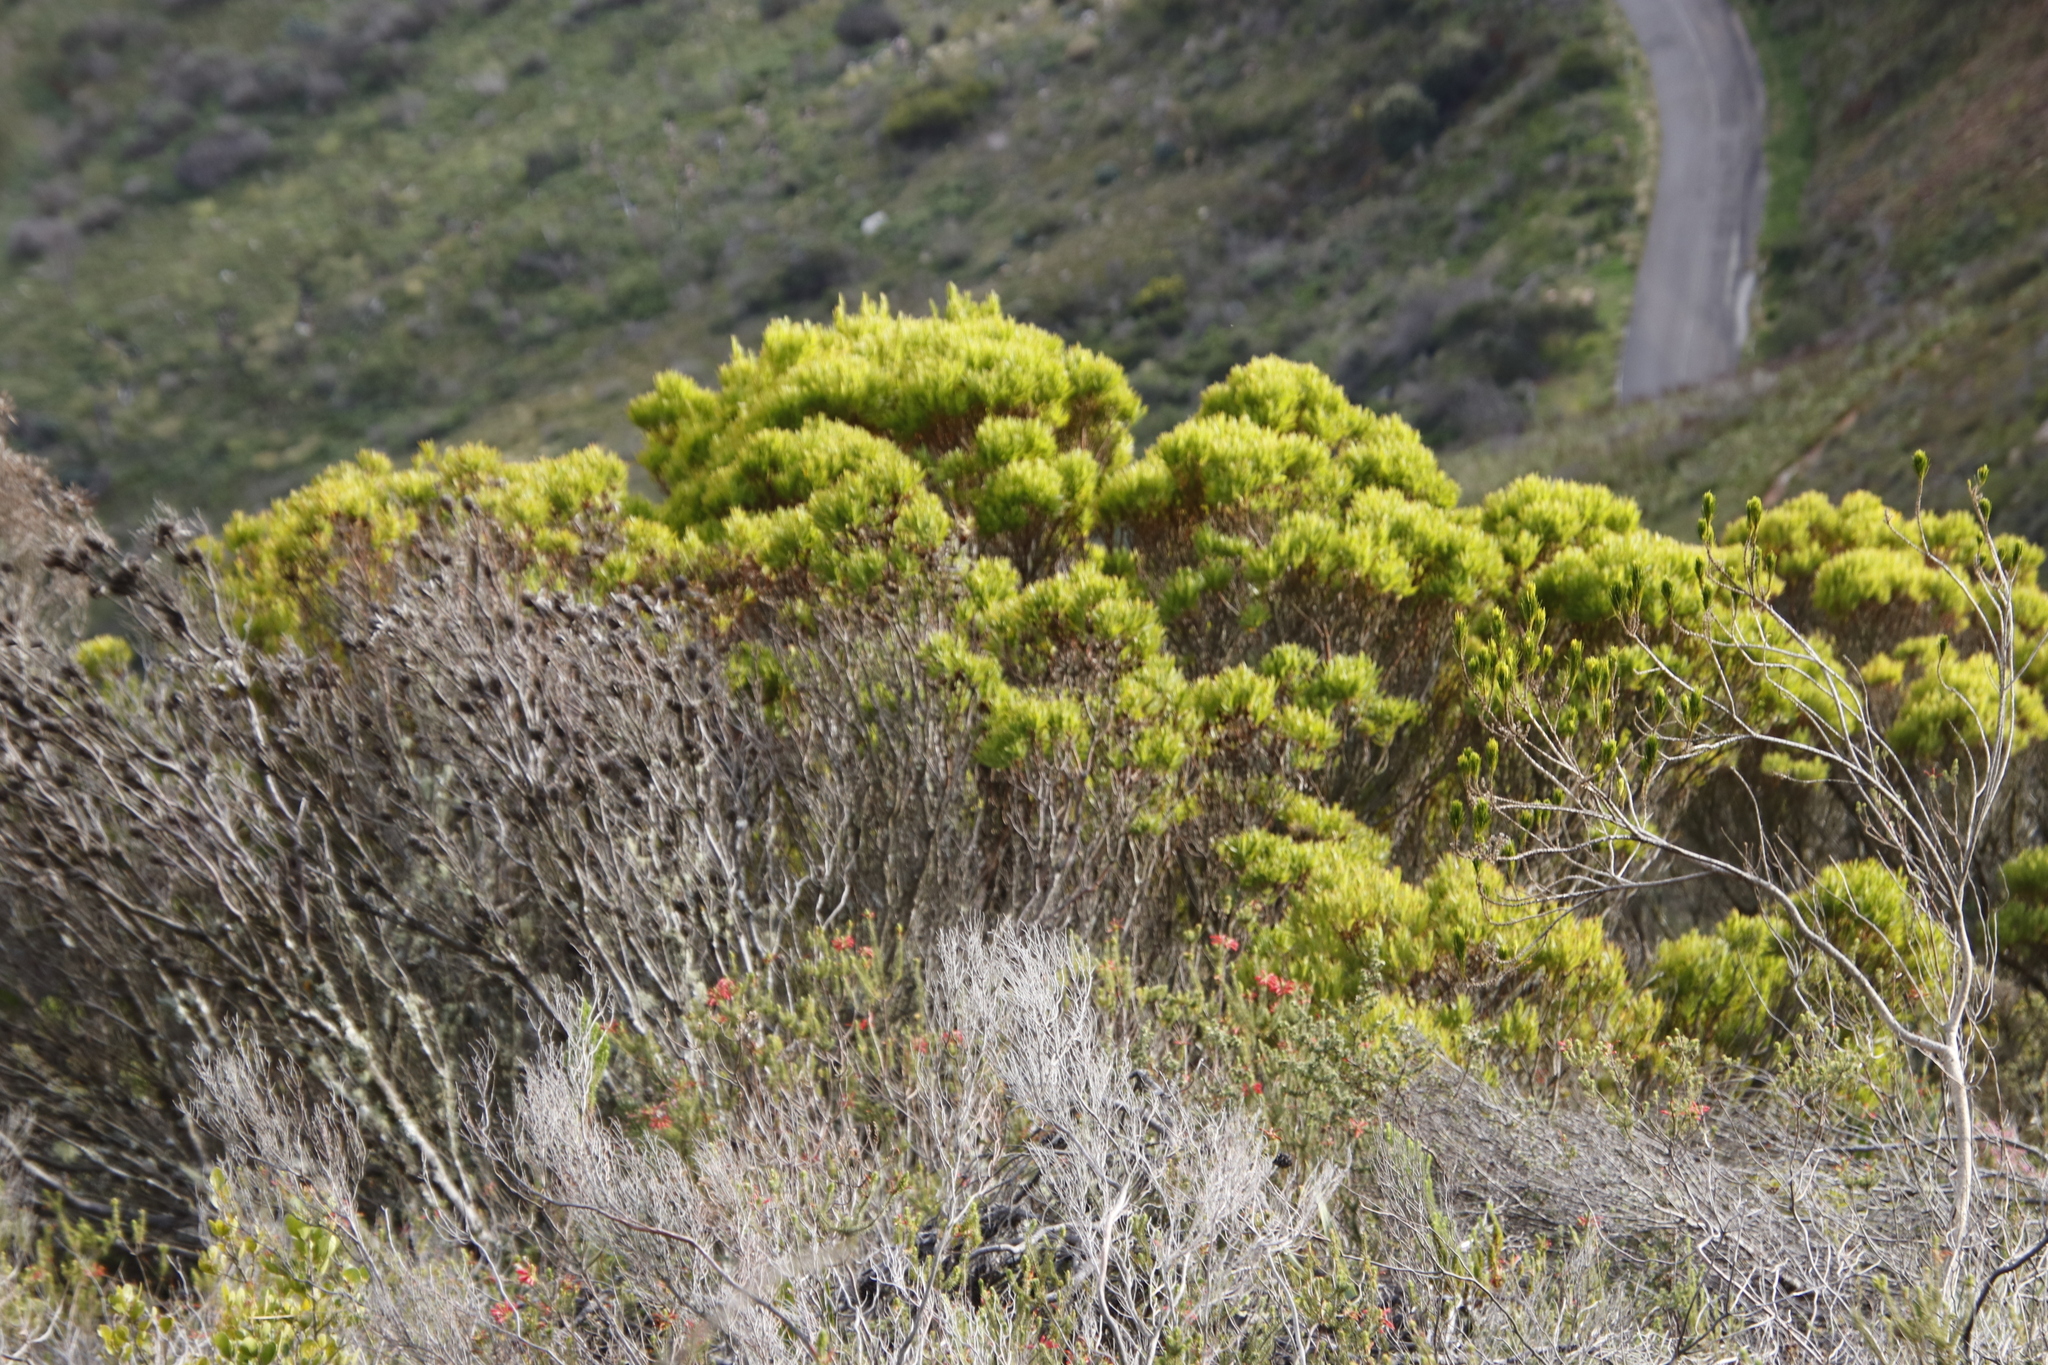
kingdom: Plantae
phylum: Tracheophyta
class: Magnoliopsida
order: Proteales
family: Proteaceae
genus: Leucadendron
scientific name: Leucadendron xanthoconus
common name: Sickle-leaf conebush
